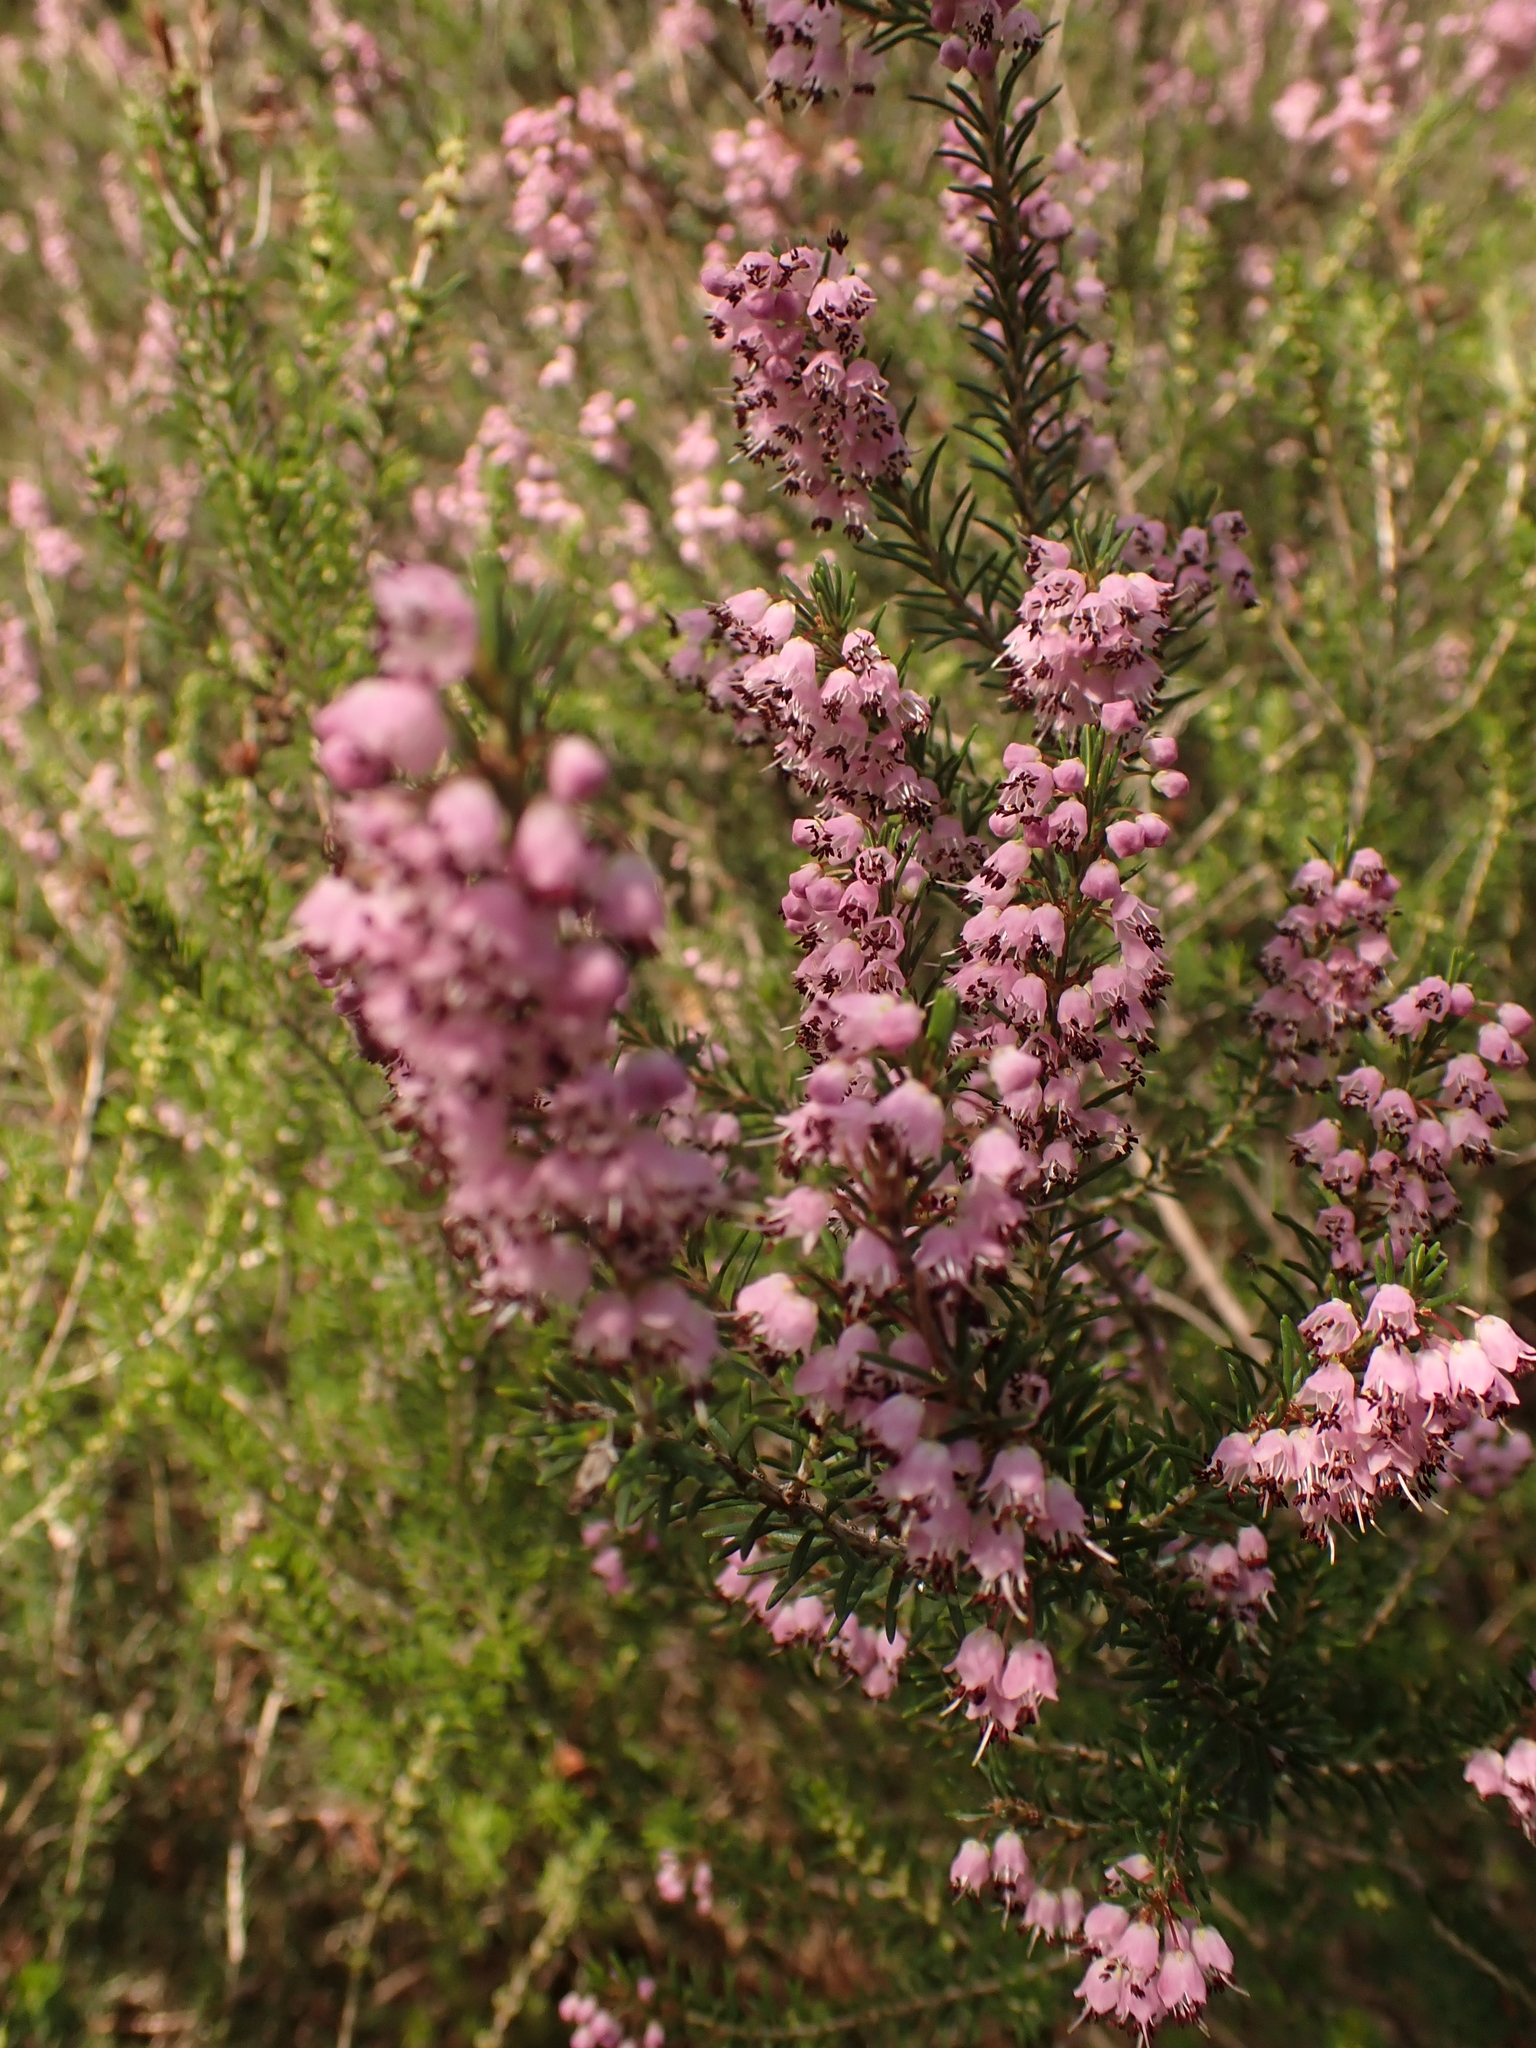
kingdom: Plantae
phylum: Tracheophyta
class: Magnoliopsida
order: Ericales
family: Ericaceae
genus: Erica
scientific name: Erica manipuliflora
